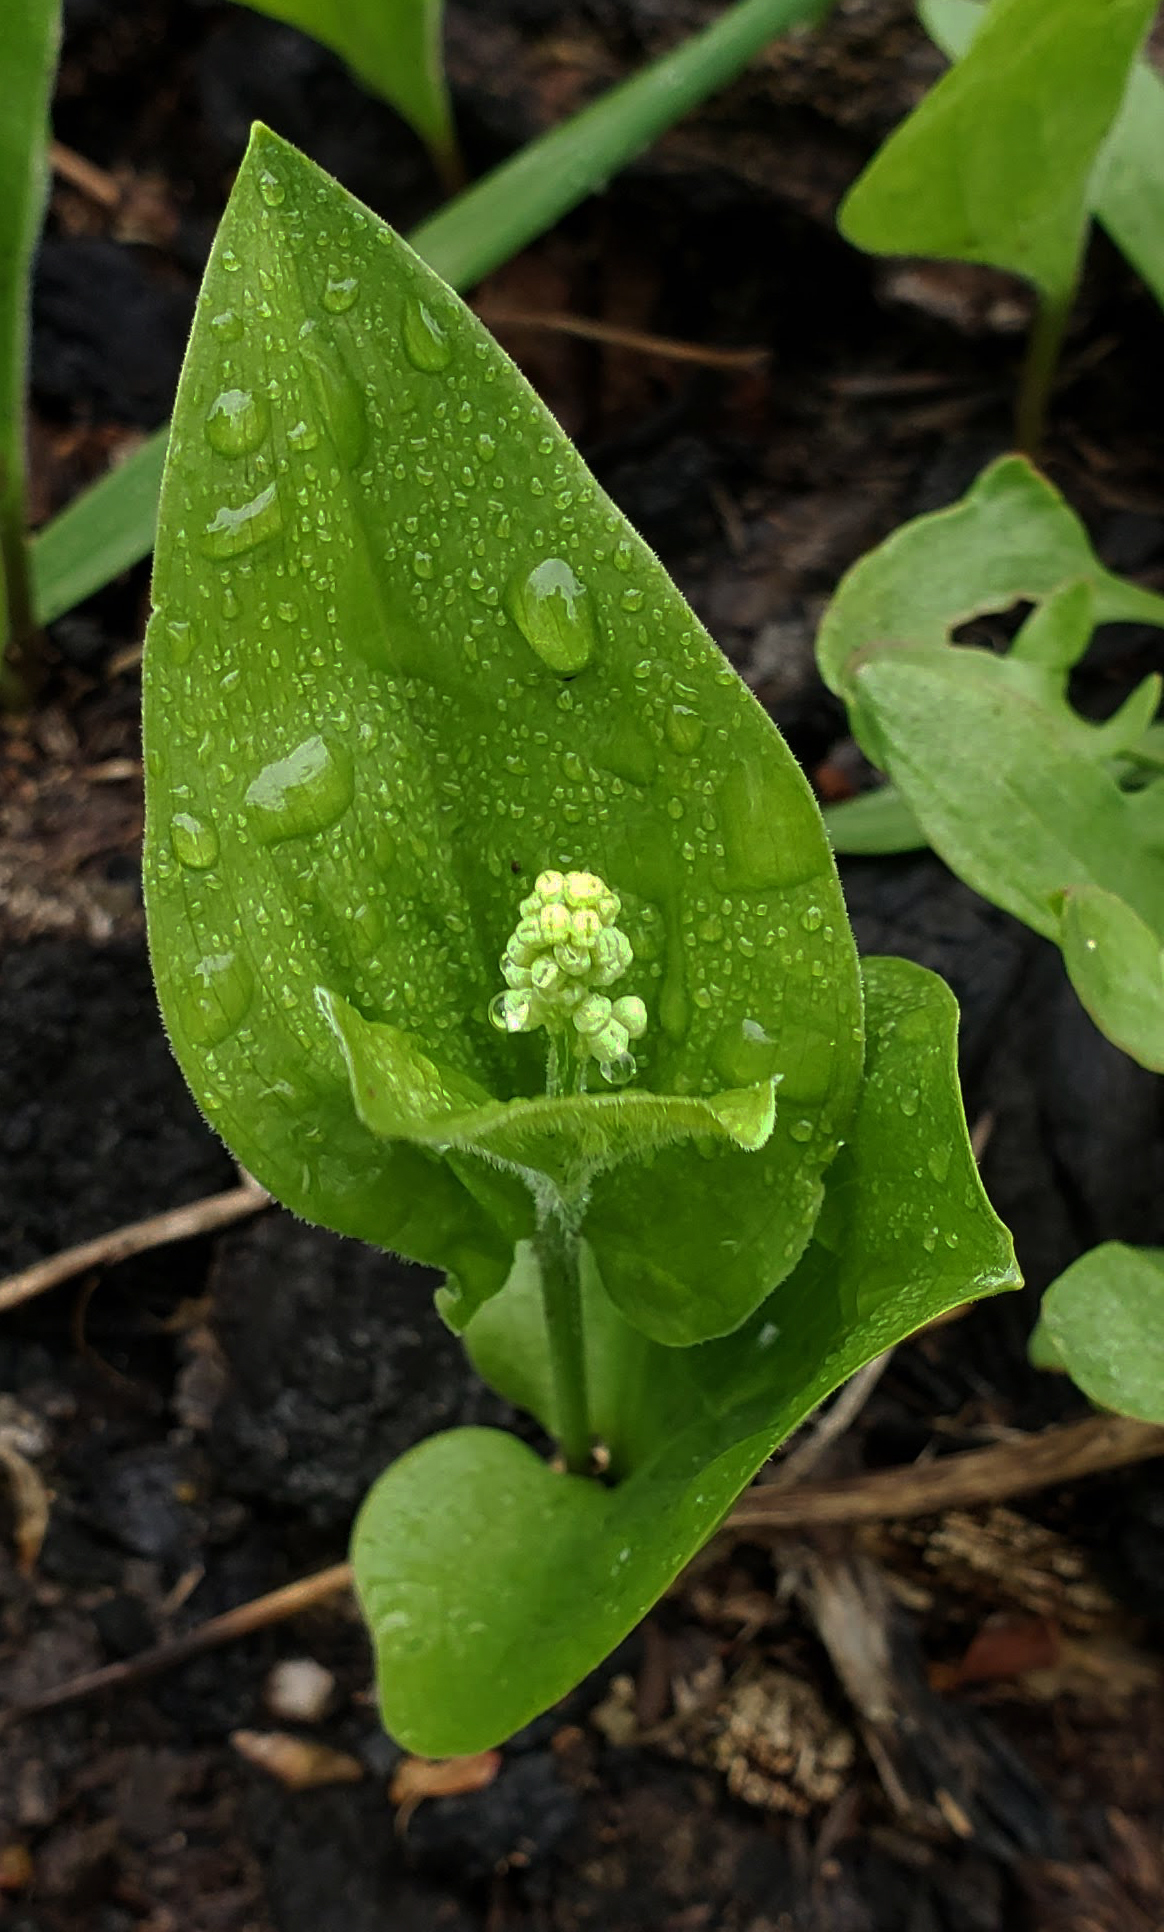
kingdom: Plantae
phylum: Tracheophyta
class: Liliopsida
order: Asparagales
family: Asparagaceae
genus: Maianthemum
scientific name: Maianthemum canadense
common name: False lily-of-the-valley
